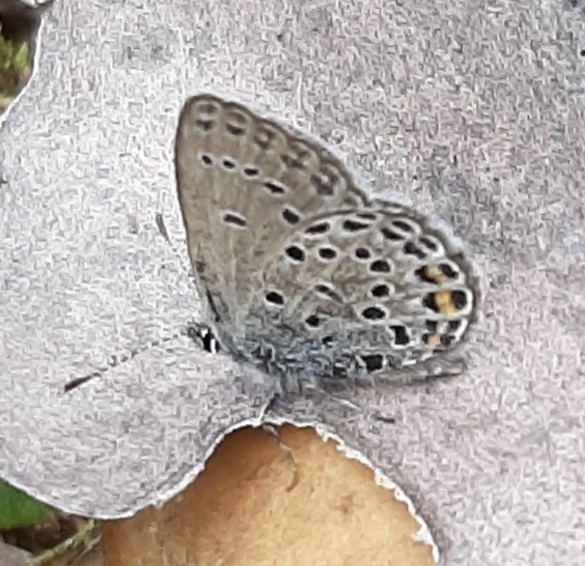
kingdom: Animalia
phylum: Arthropoda
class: Insecta
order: Lepidoptera
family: Lycaenidae
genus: Vacciniina
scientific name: Vacciniina optilete
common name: Cranberry blue
